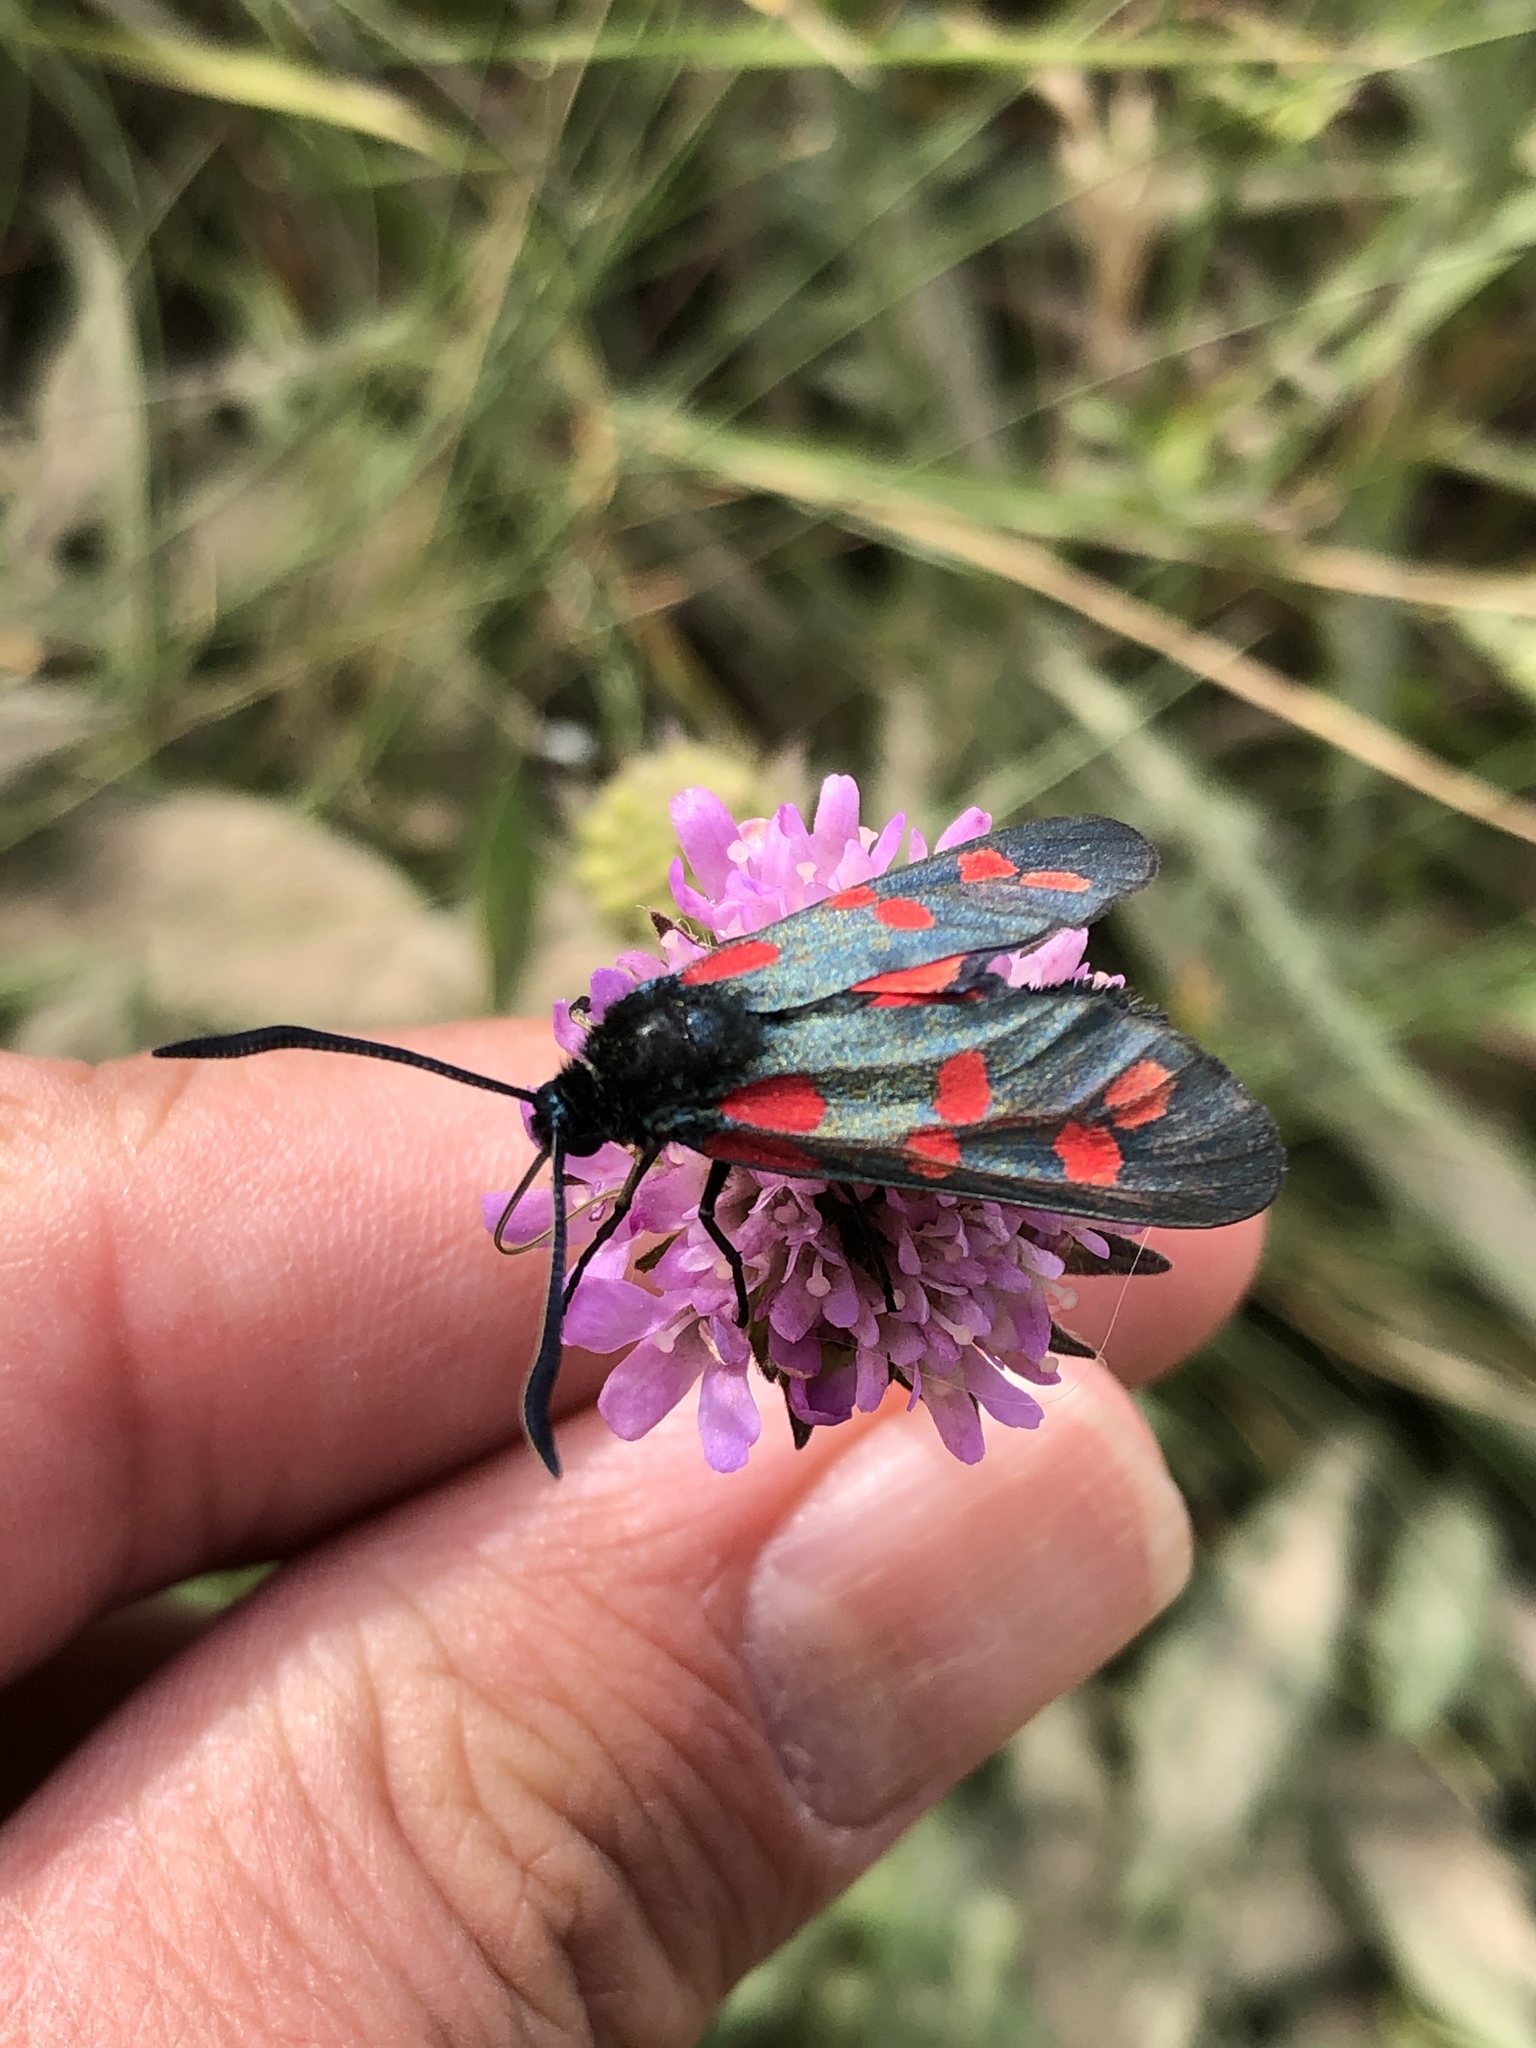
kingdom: Animalia
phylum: Arthropoda
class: Insecta
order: Lepidoptera
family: Zygaenidae
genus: Zygaena
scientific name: Zygaena filipendulae
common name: Six-spot burnet
